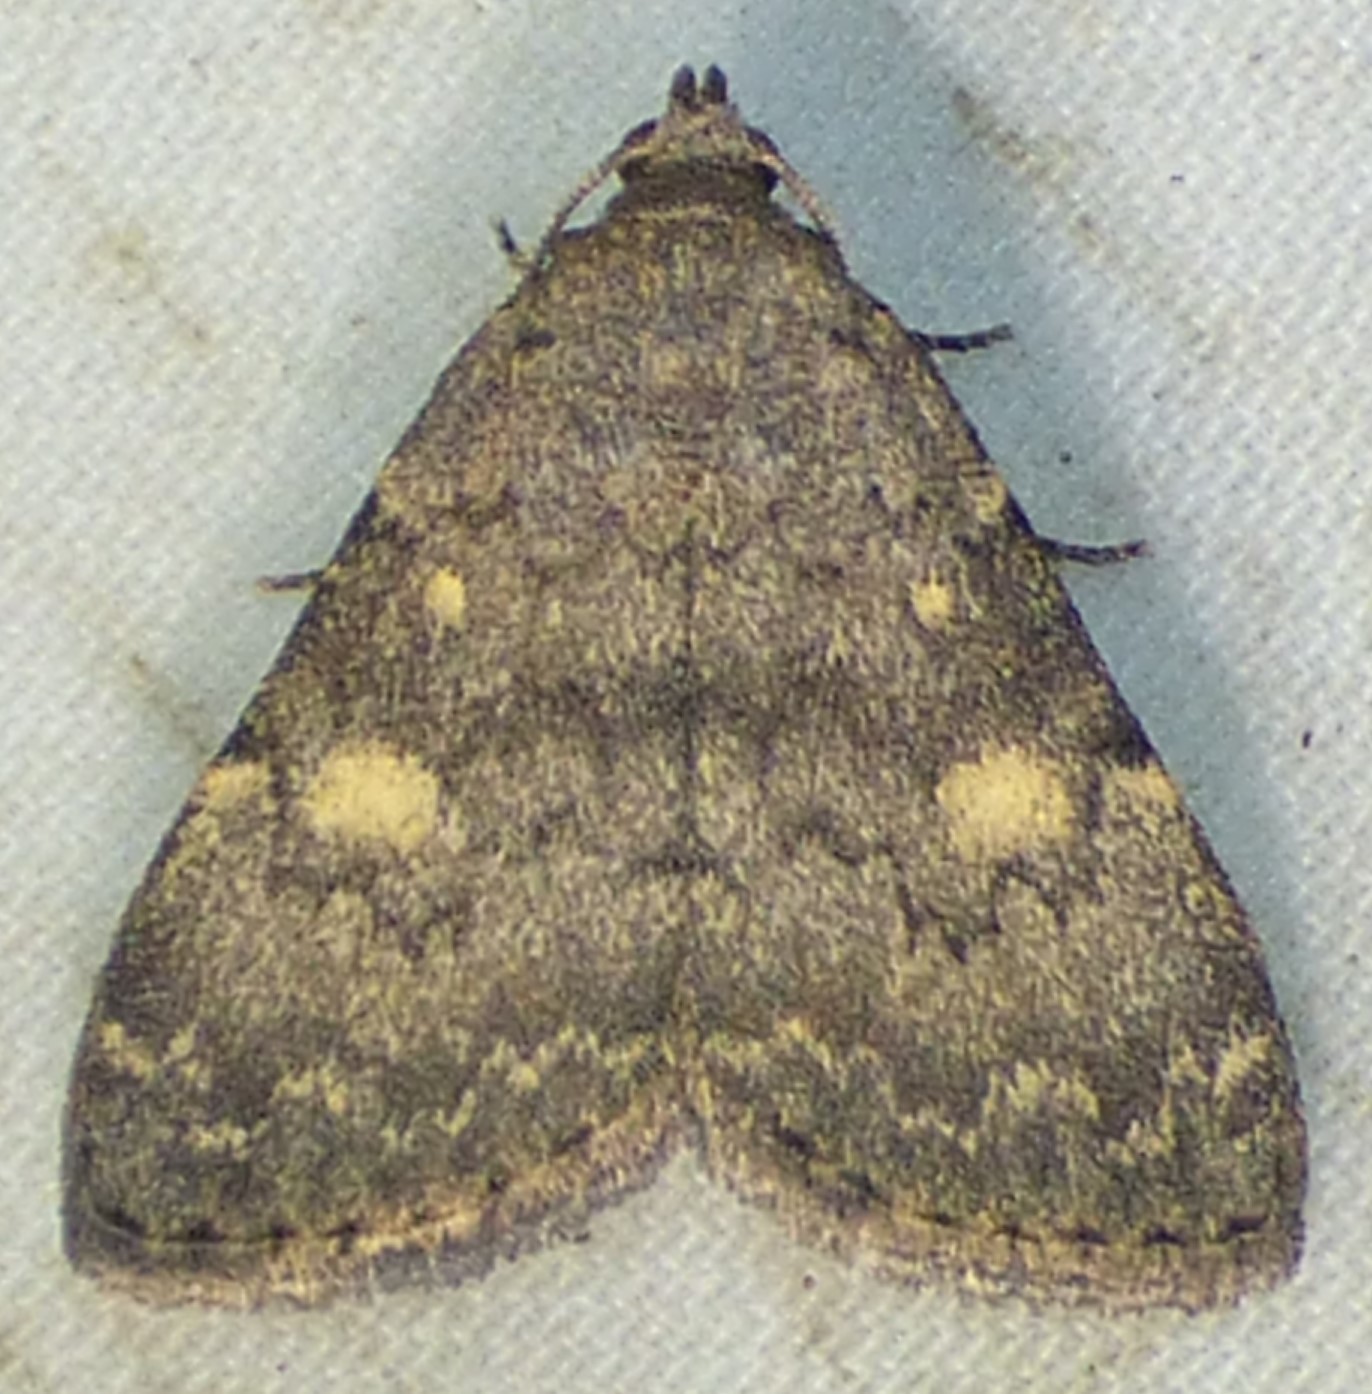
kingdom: Animalia
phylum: Arthropoda
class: Insecta
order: Lepidoptera
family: Erebidae
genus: Idia
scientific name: Idia aemula
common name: Common idia moth
